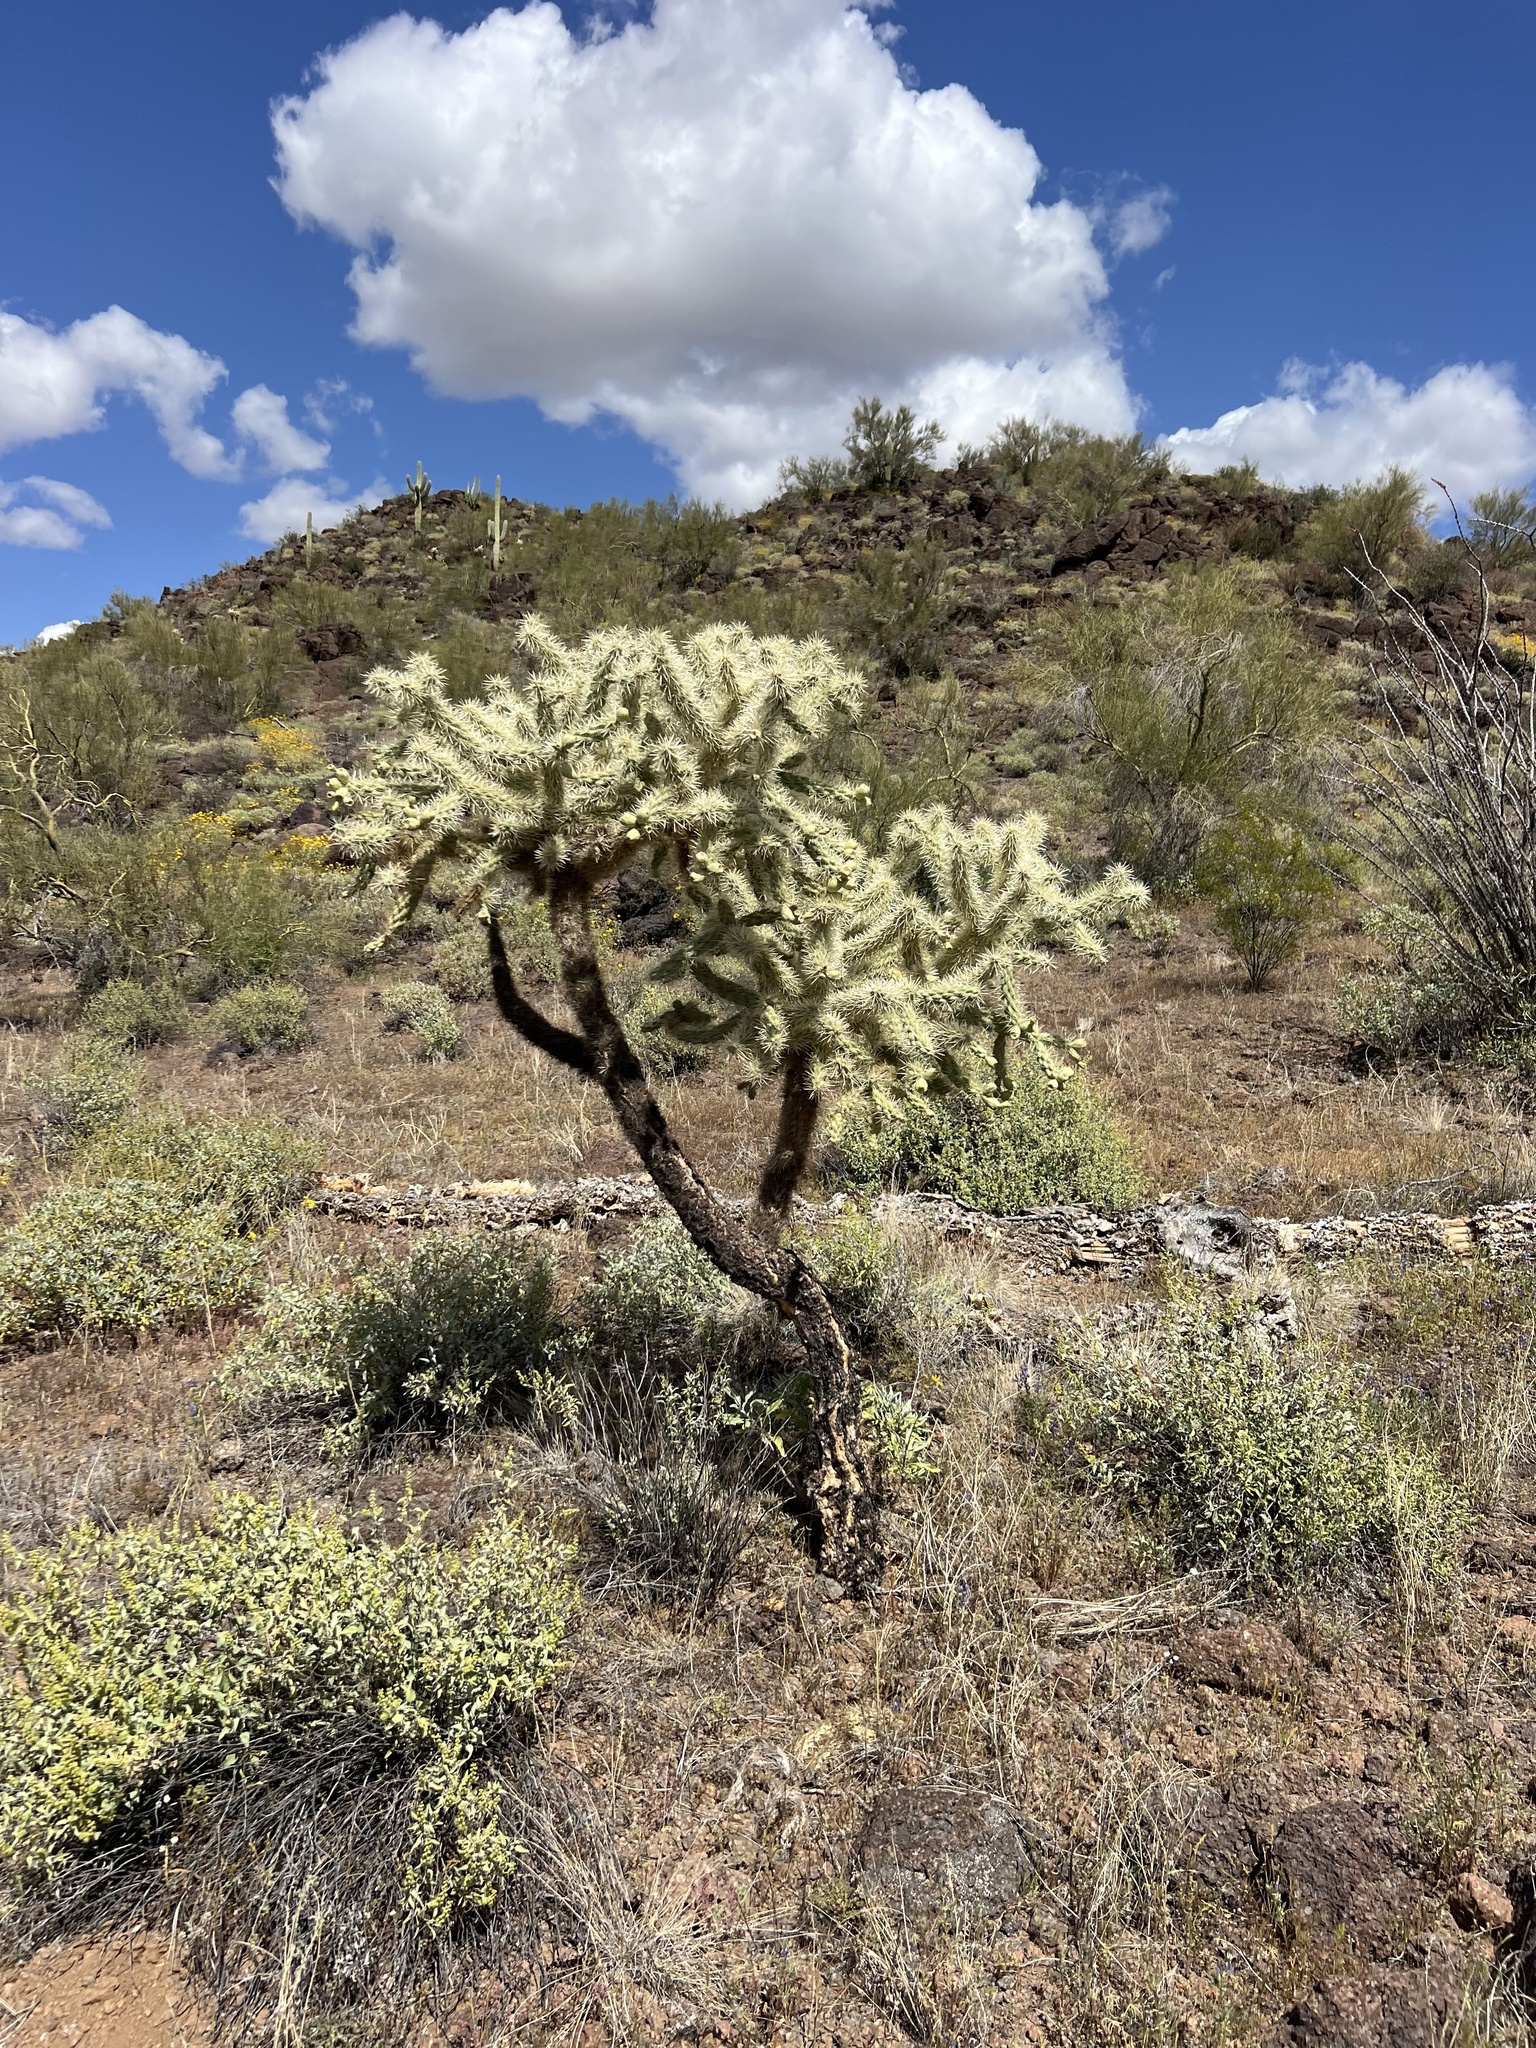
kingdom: Plantae
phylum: Tracheophyta
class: Magnoliopsida
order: Caryophyllales
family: Cactaceae
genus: Cylindropuntia
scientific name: Cylindropuntia fulgida
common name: Jumping cholla
